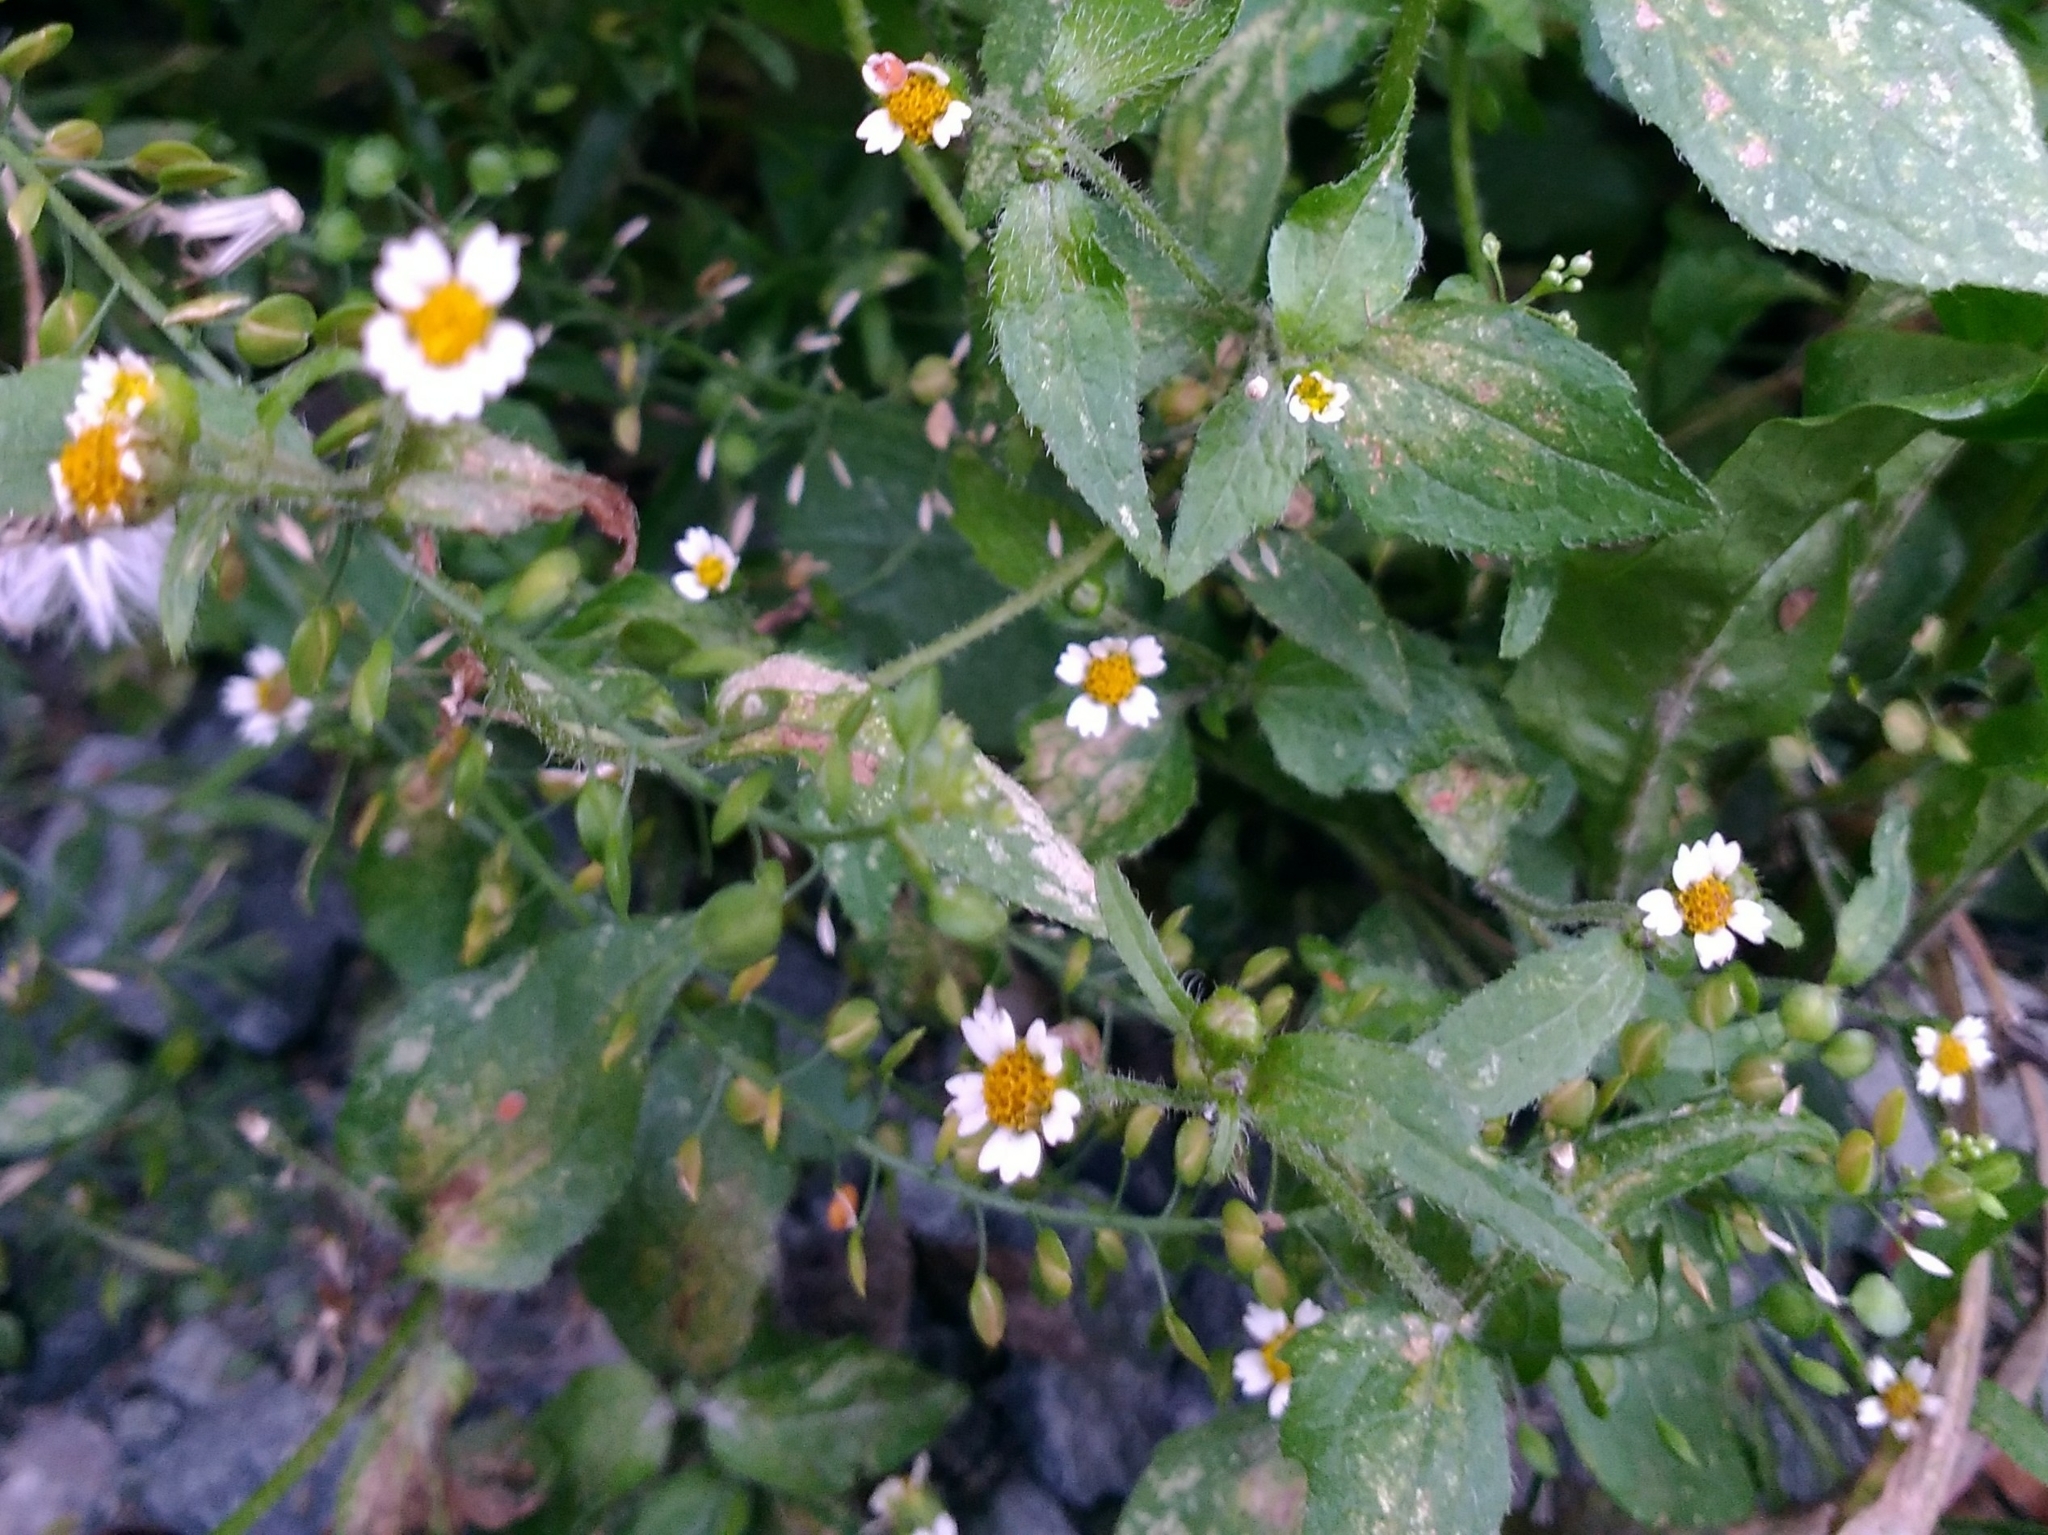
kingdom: Plantae
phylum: Tracheophyta
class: Magnoliopsida
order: Asterales
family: Asteraceae
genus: Galinsoga
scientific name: Galinsoga quadriradiata
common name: Shaggy soldier
